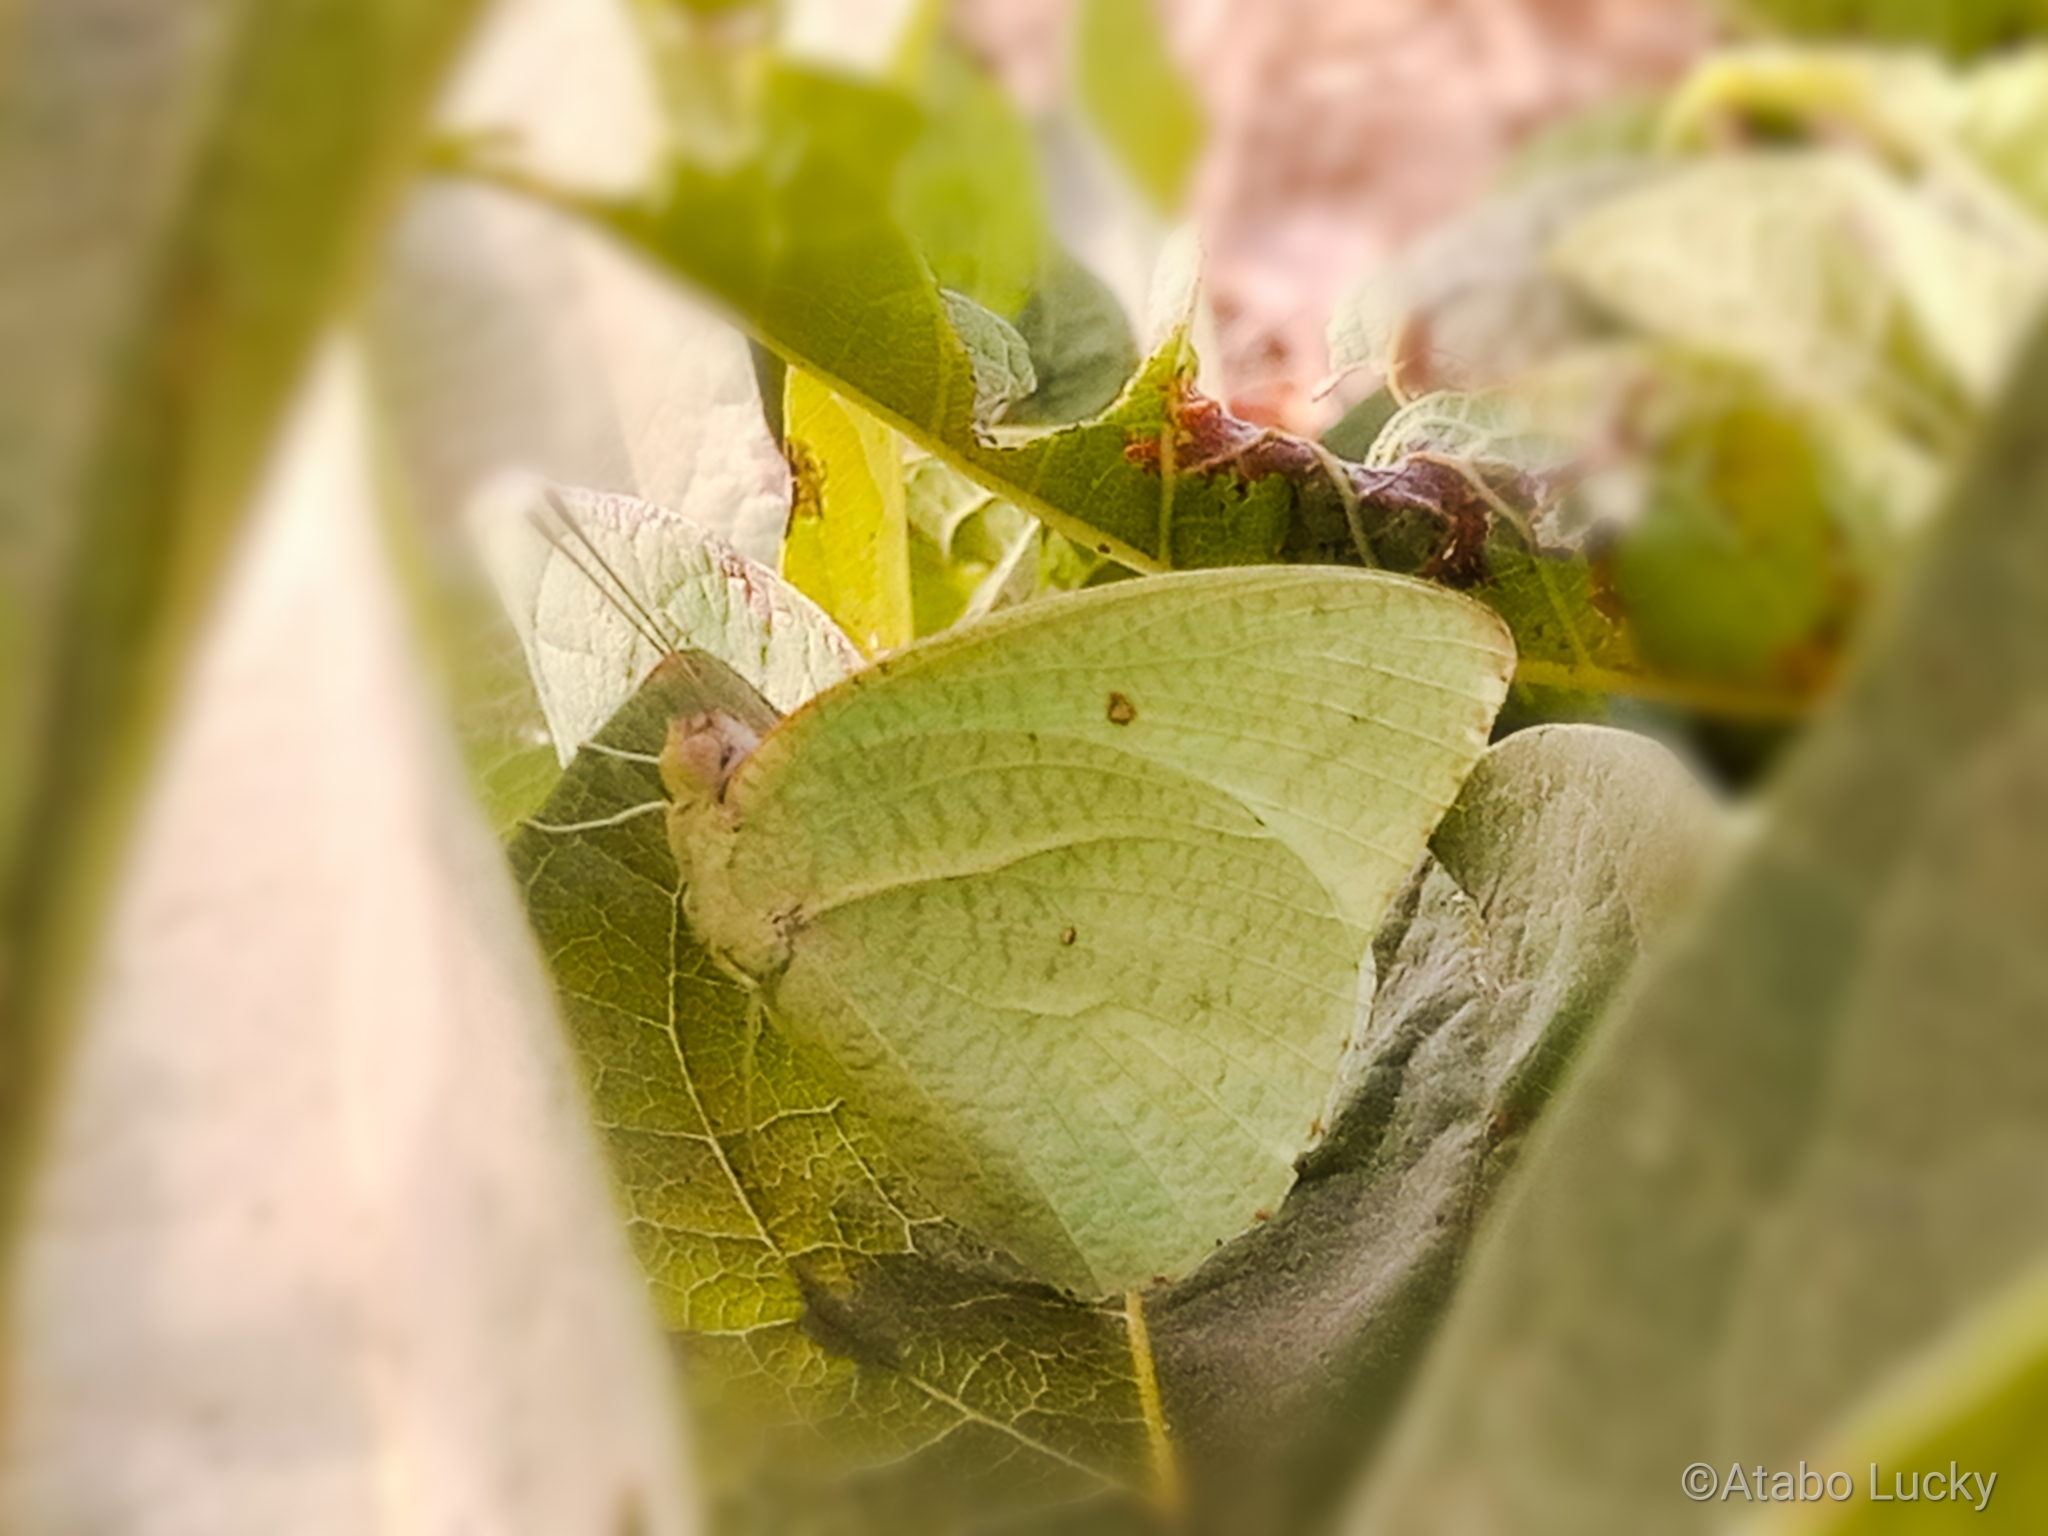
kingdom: Animalia
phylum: Arthropoda
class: Insecta
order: Lepidoptera
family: Pieridae
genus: Catopsilia
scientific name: Catopsilia florella
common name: African migrant
